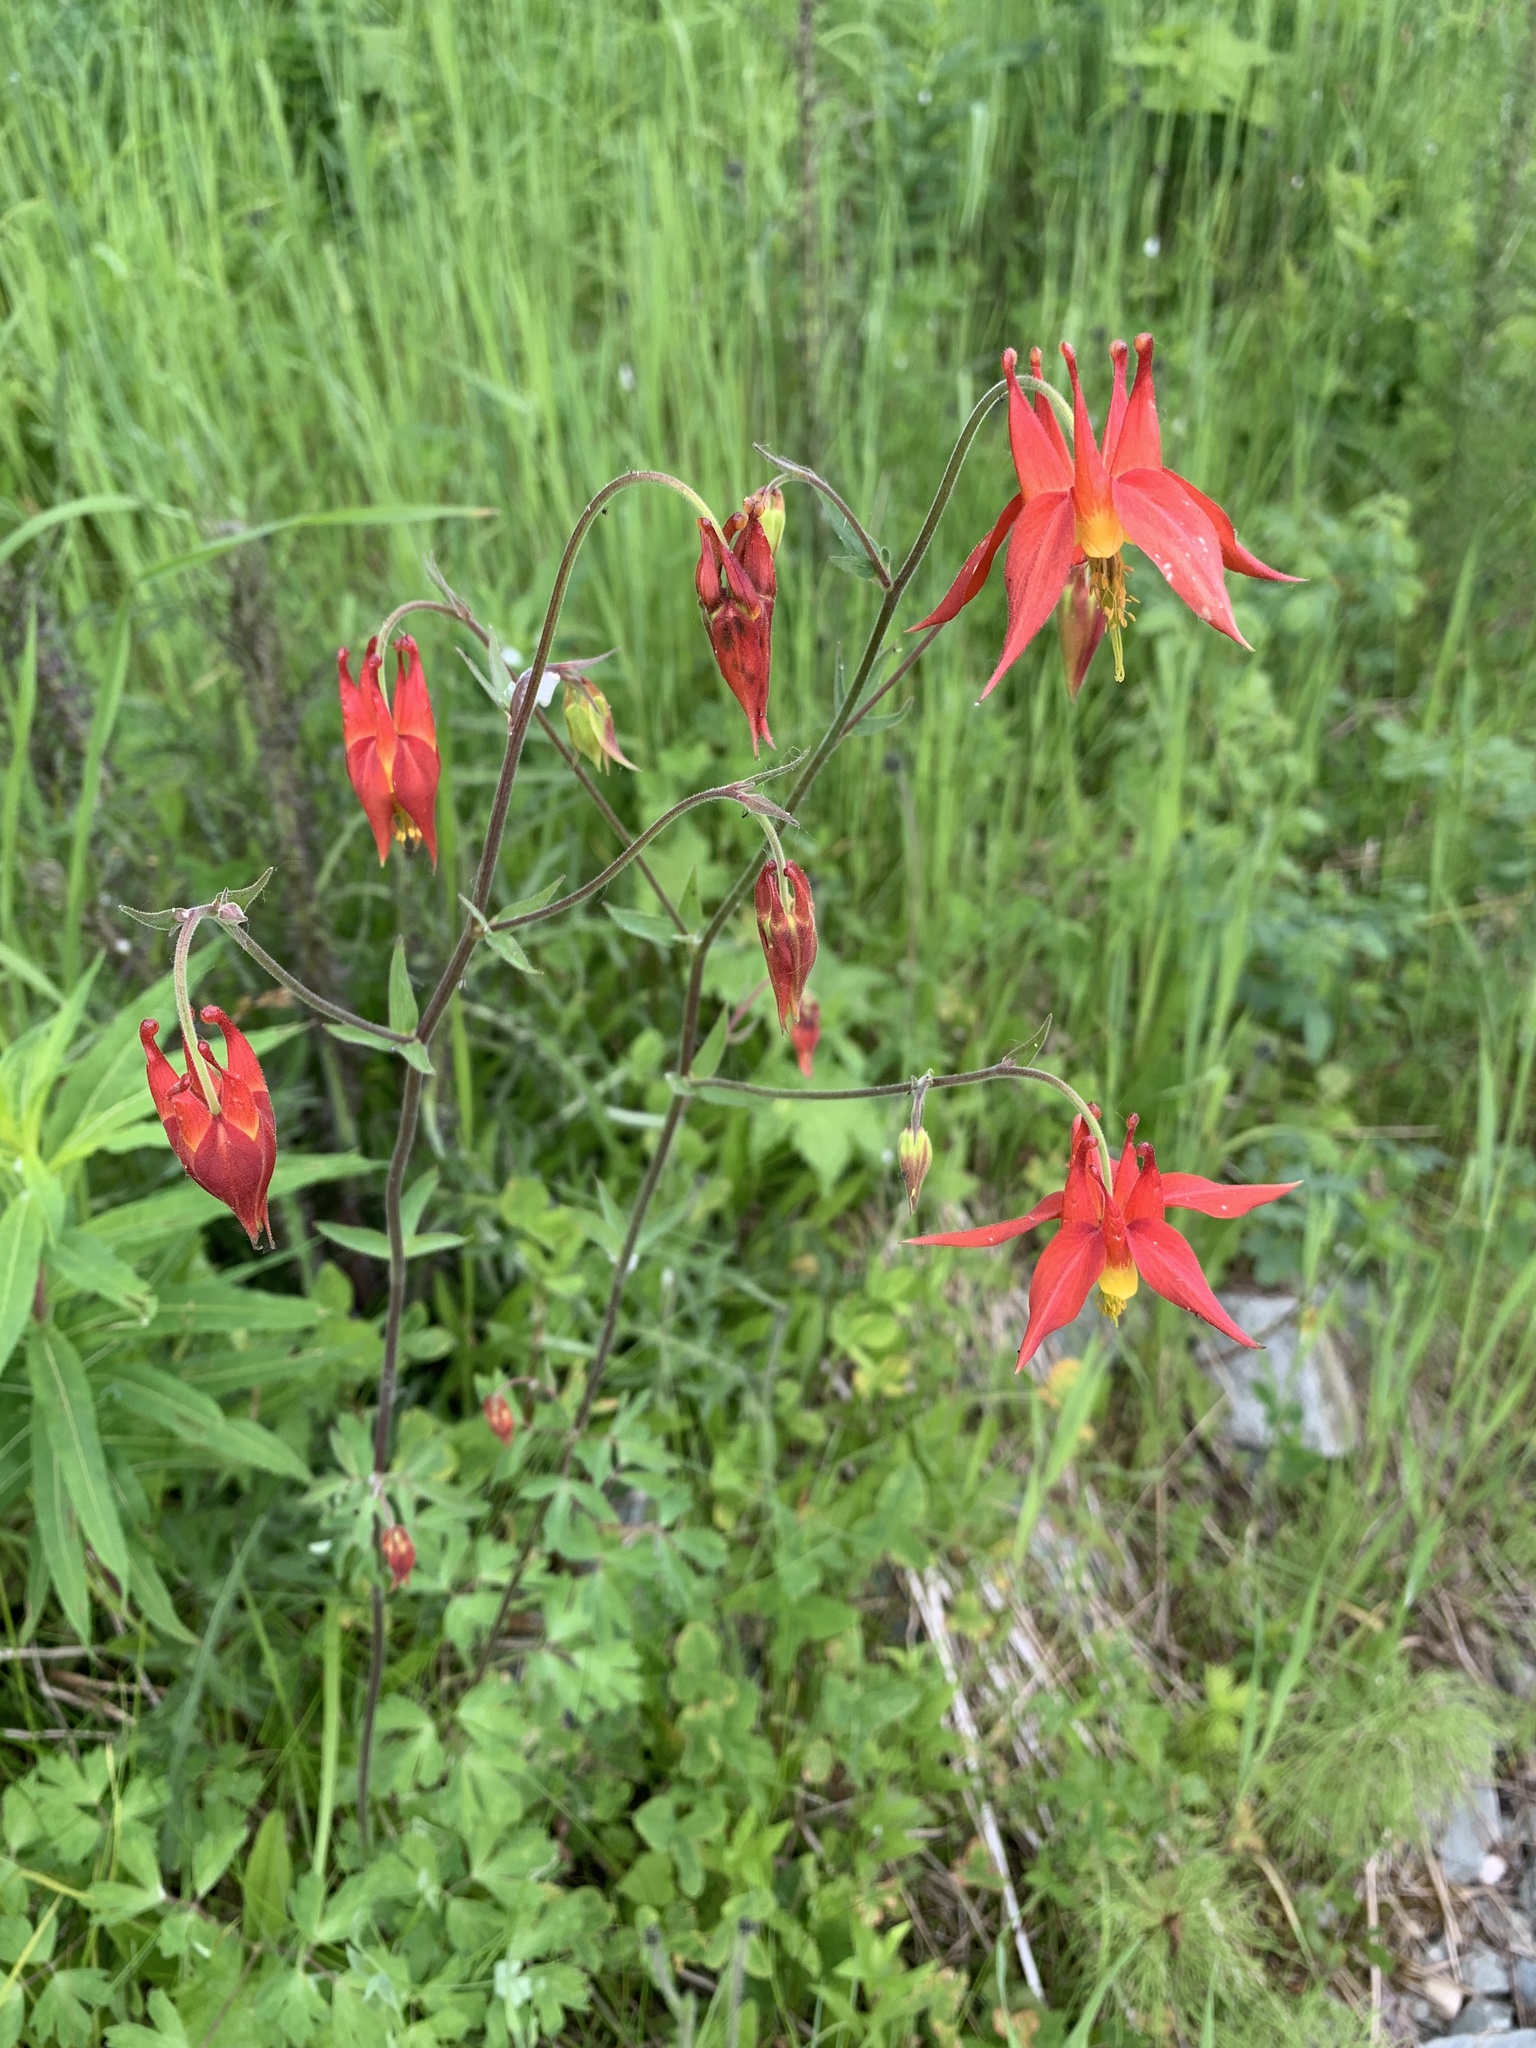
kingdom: Plantae
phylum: Tracheophyta
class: Magnoliopsida
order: Ranunculales
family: Ranunculaceae
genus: Aquilegia
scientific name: Aquilegia formosa
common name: Sitka columbine
